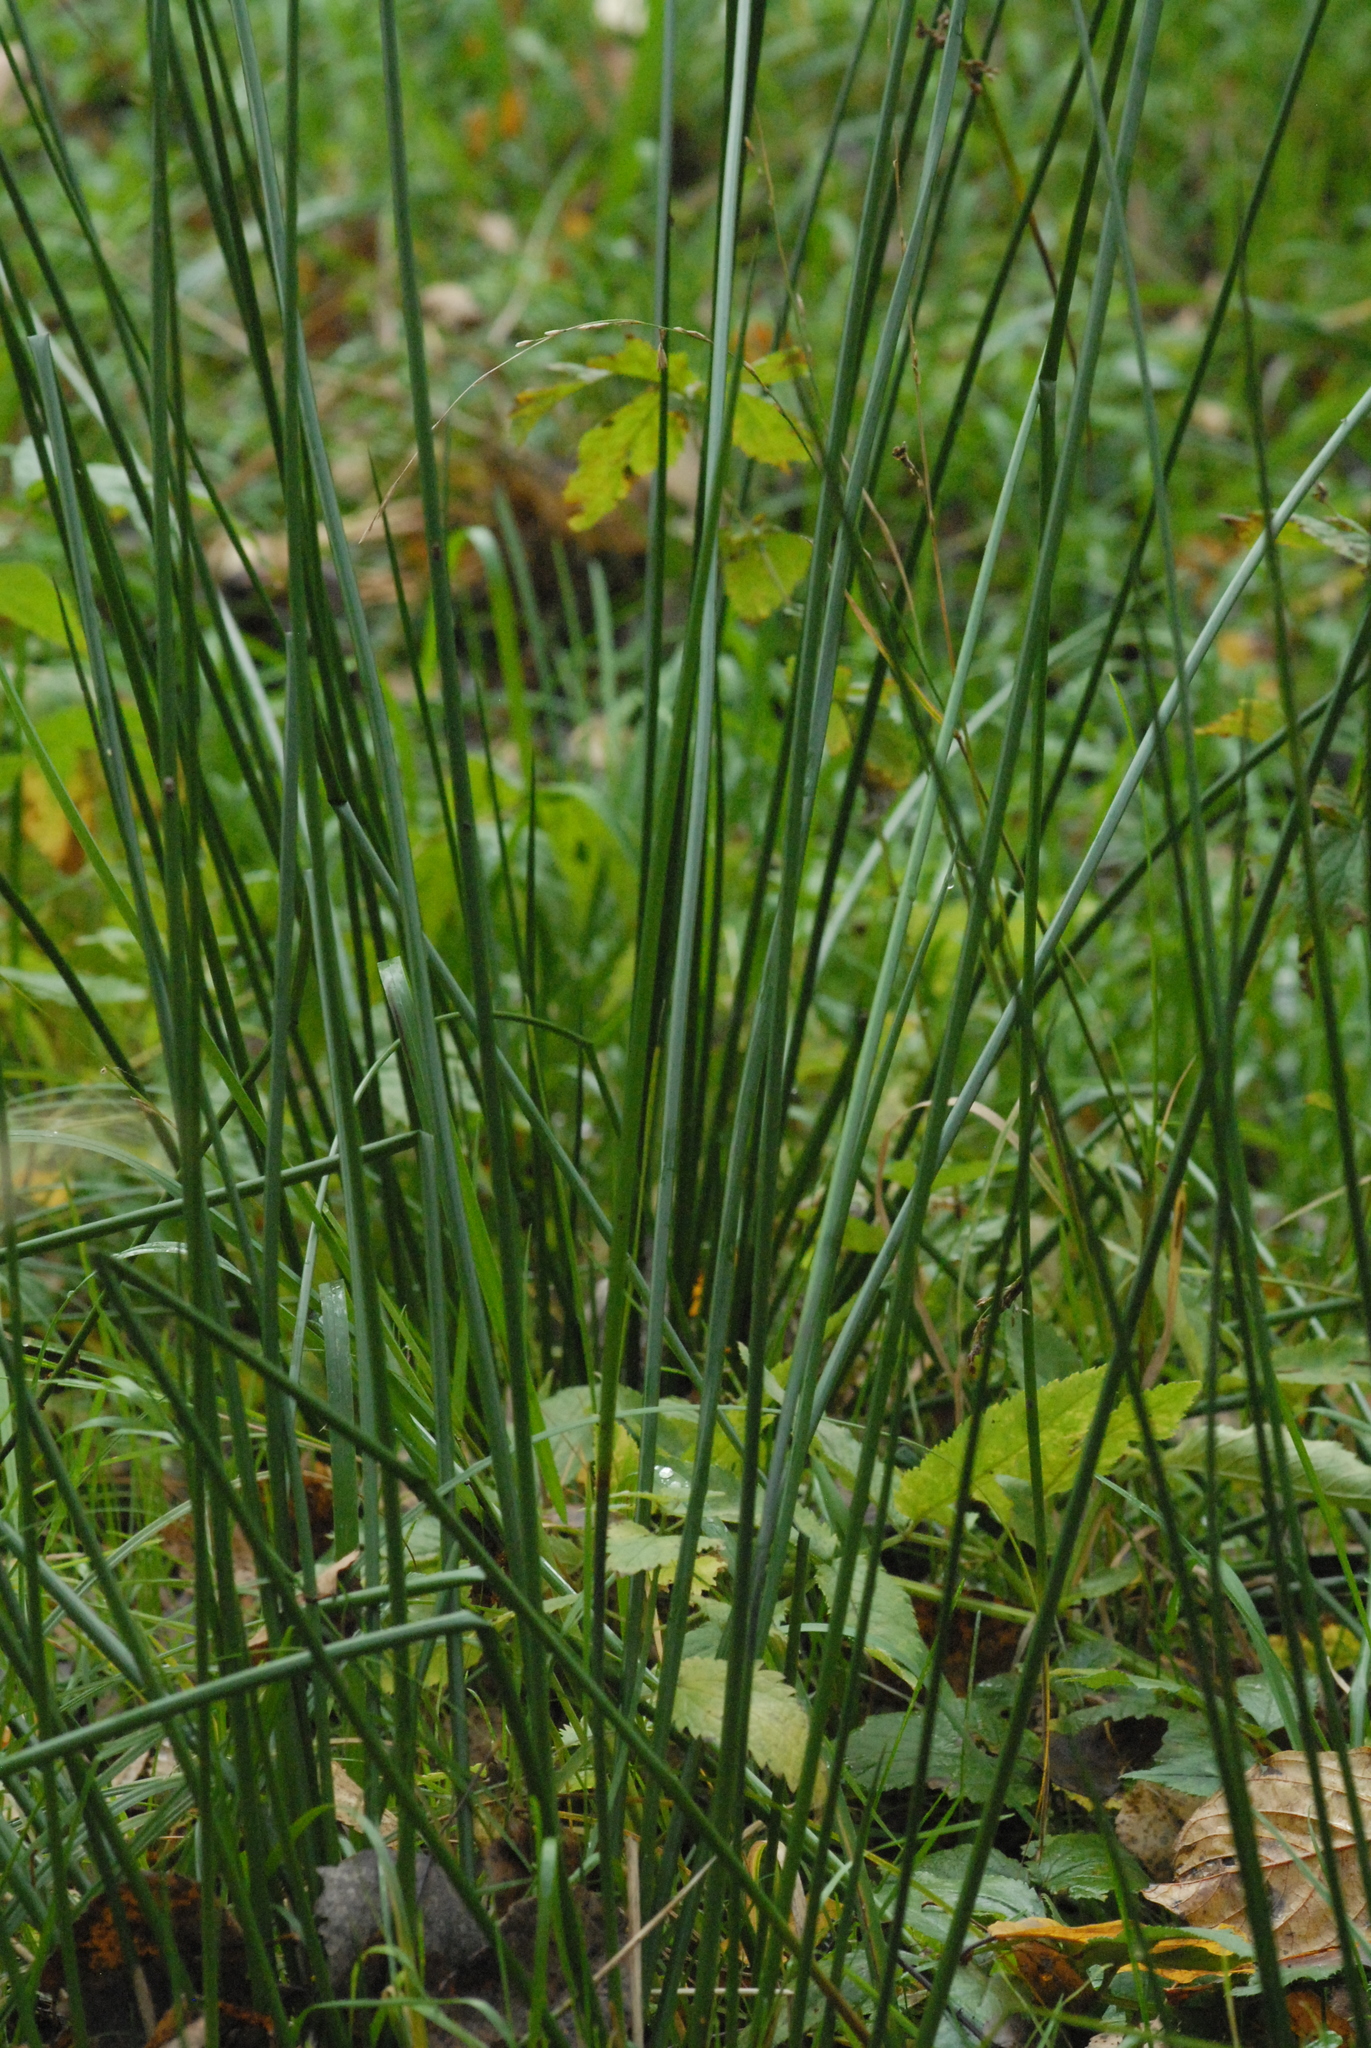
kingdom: Plantae
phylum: Tracheophyta
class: Liliopsida
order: Poales
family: Juncaceae
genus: Juncus
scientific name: Juncus effusus
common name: Soft rush
